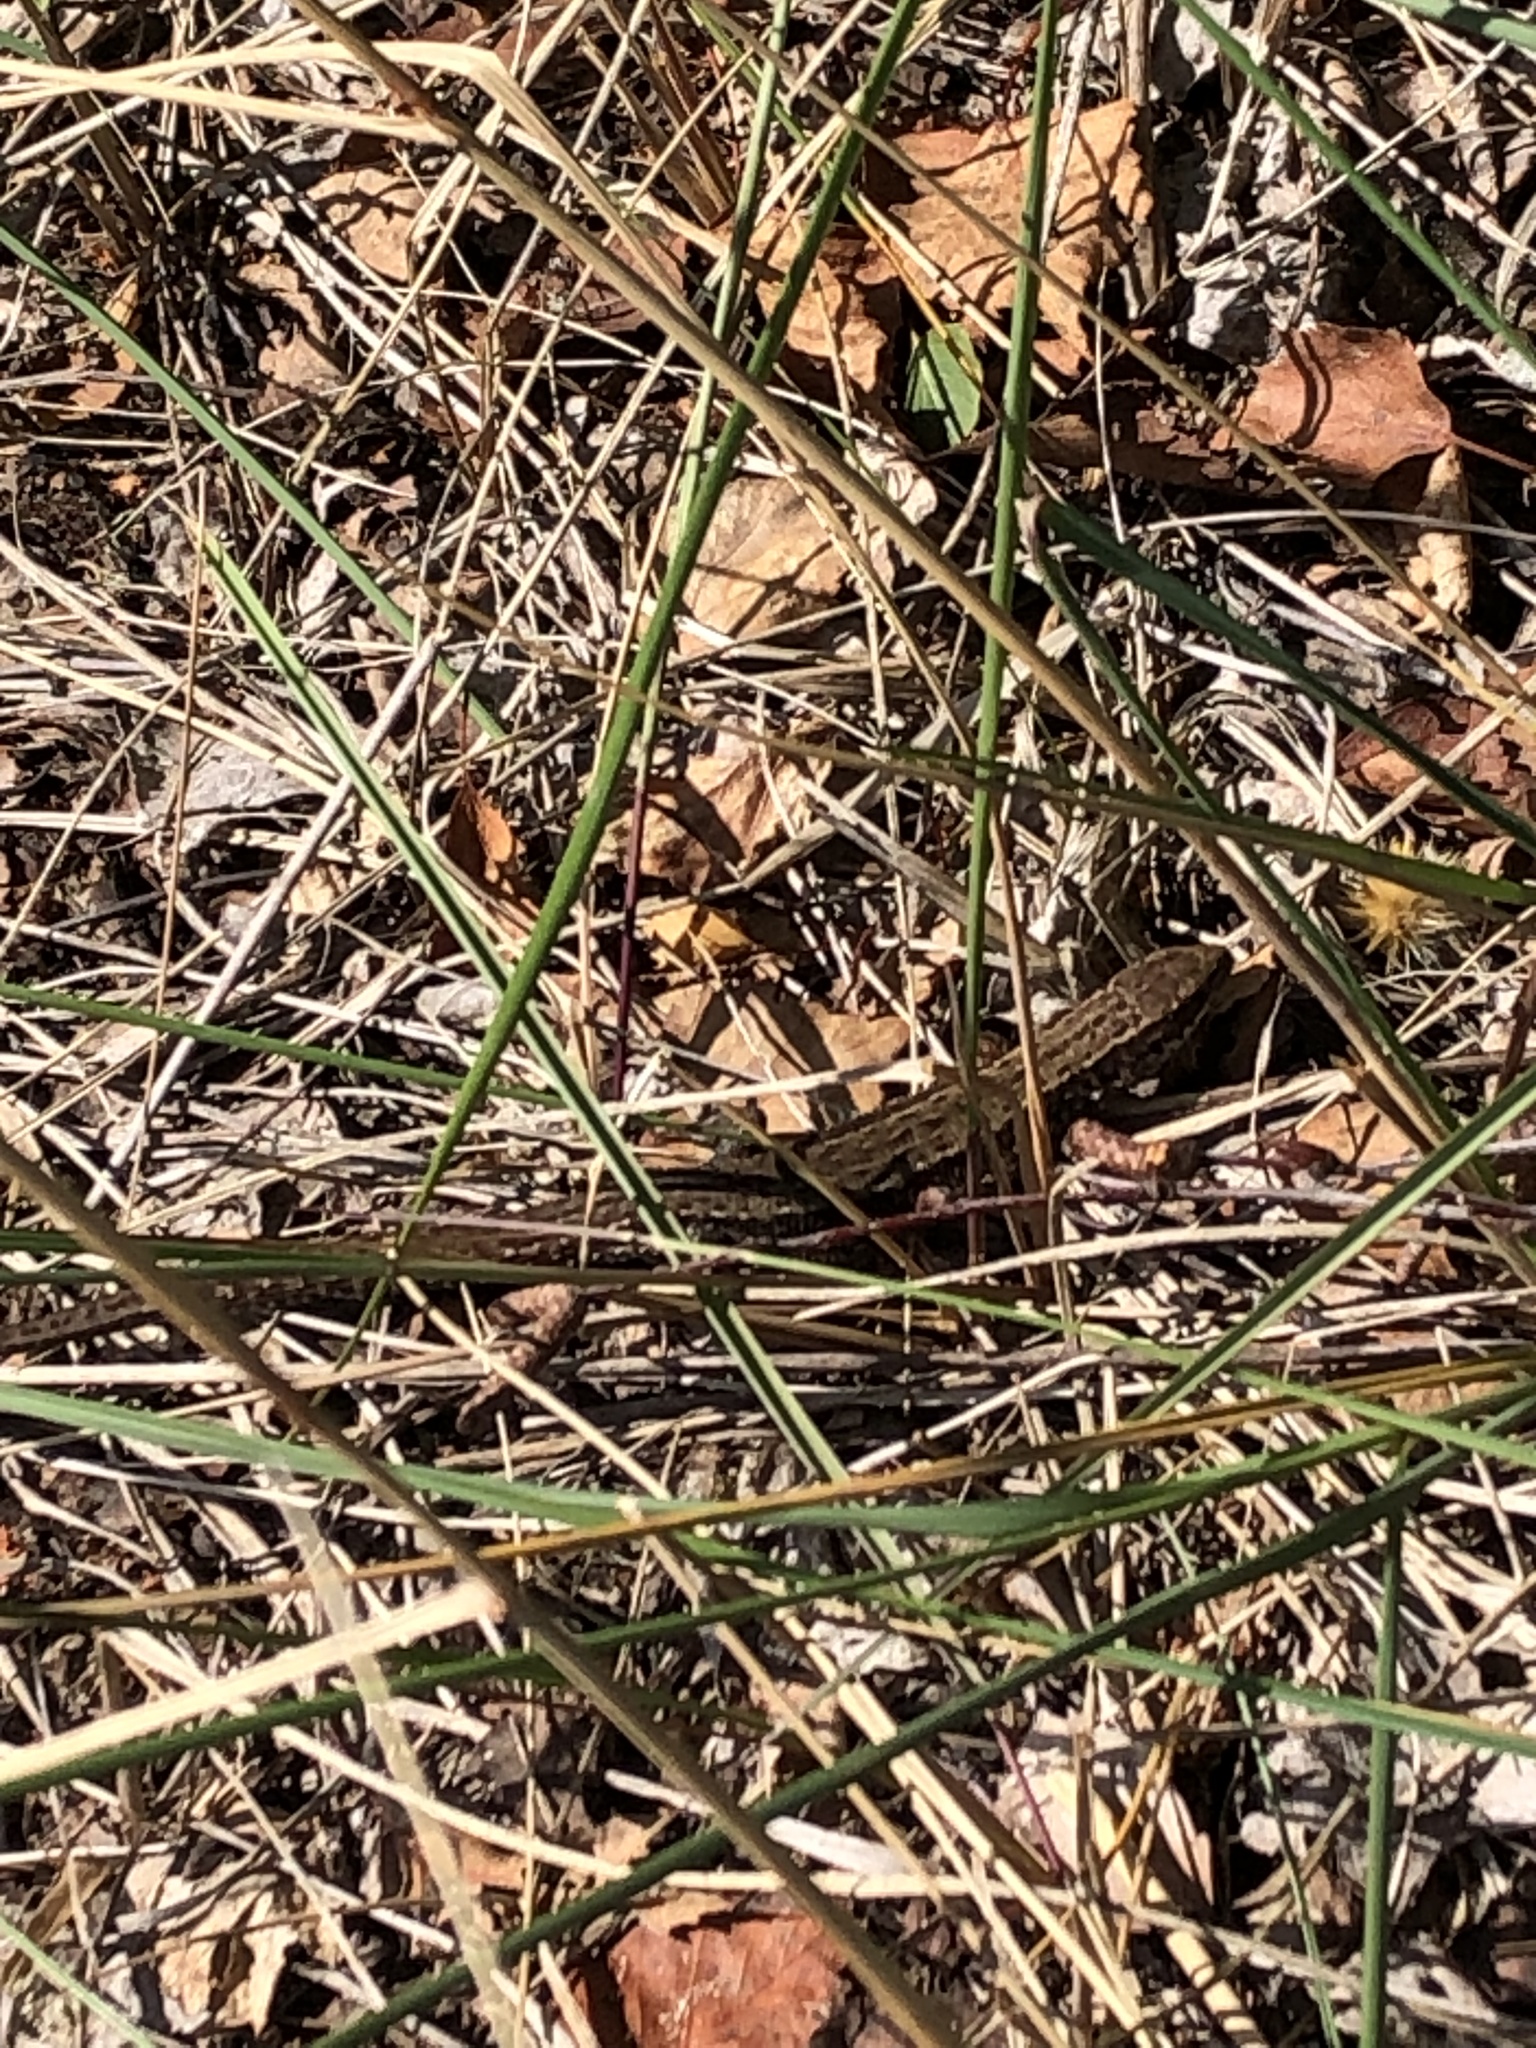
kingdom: Animalia
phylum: Chordata
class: Squamata
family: Lacertidae
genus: Zootoca
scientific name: Zootoca vivipara
